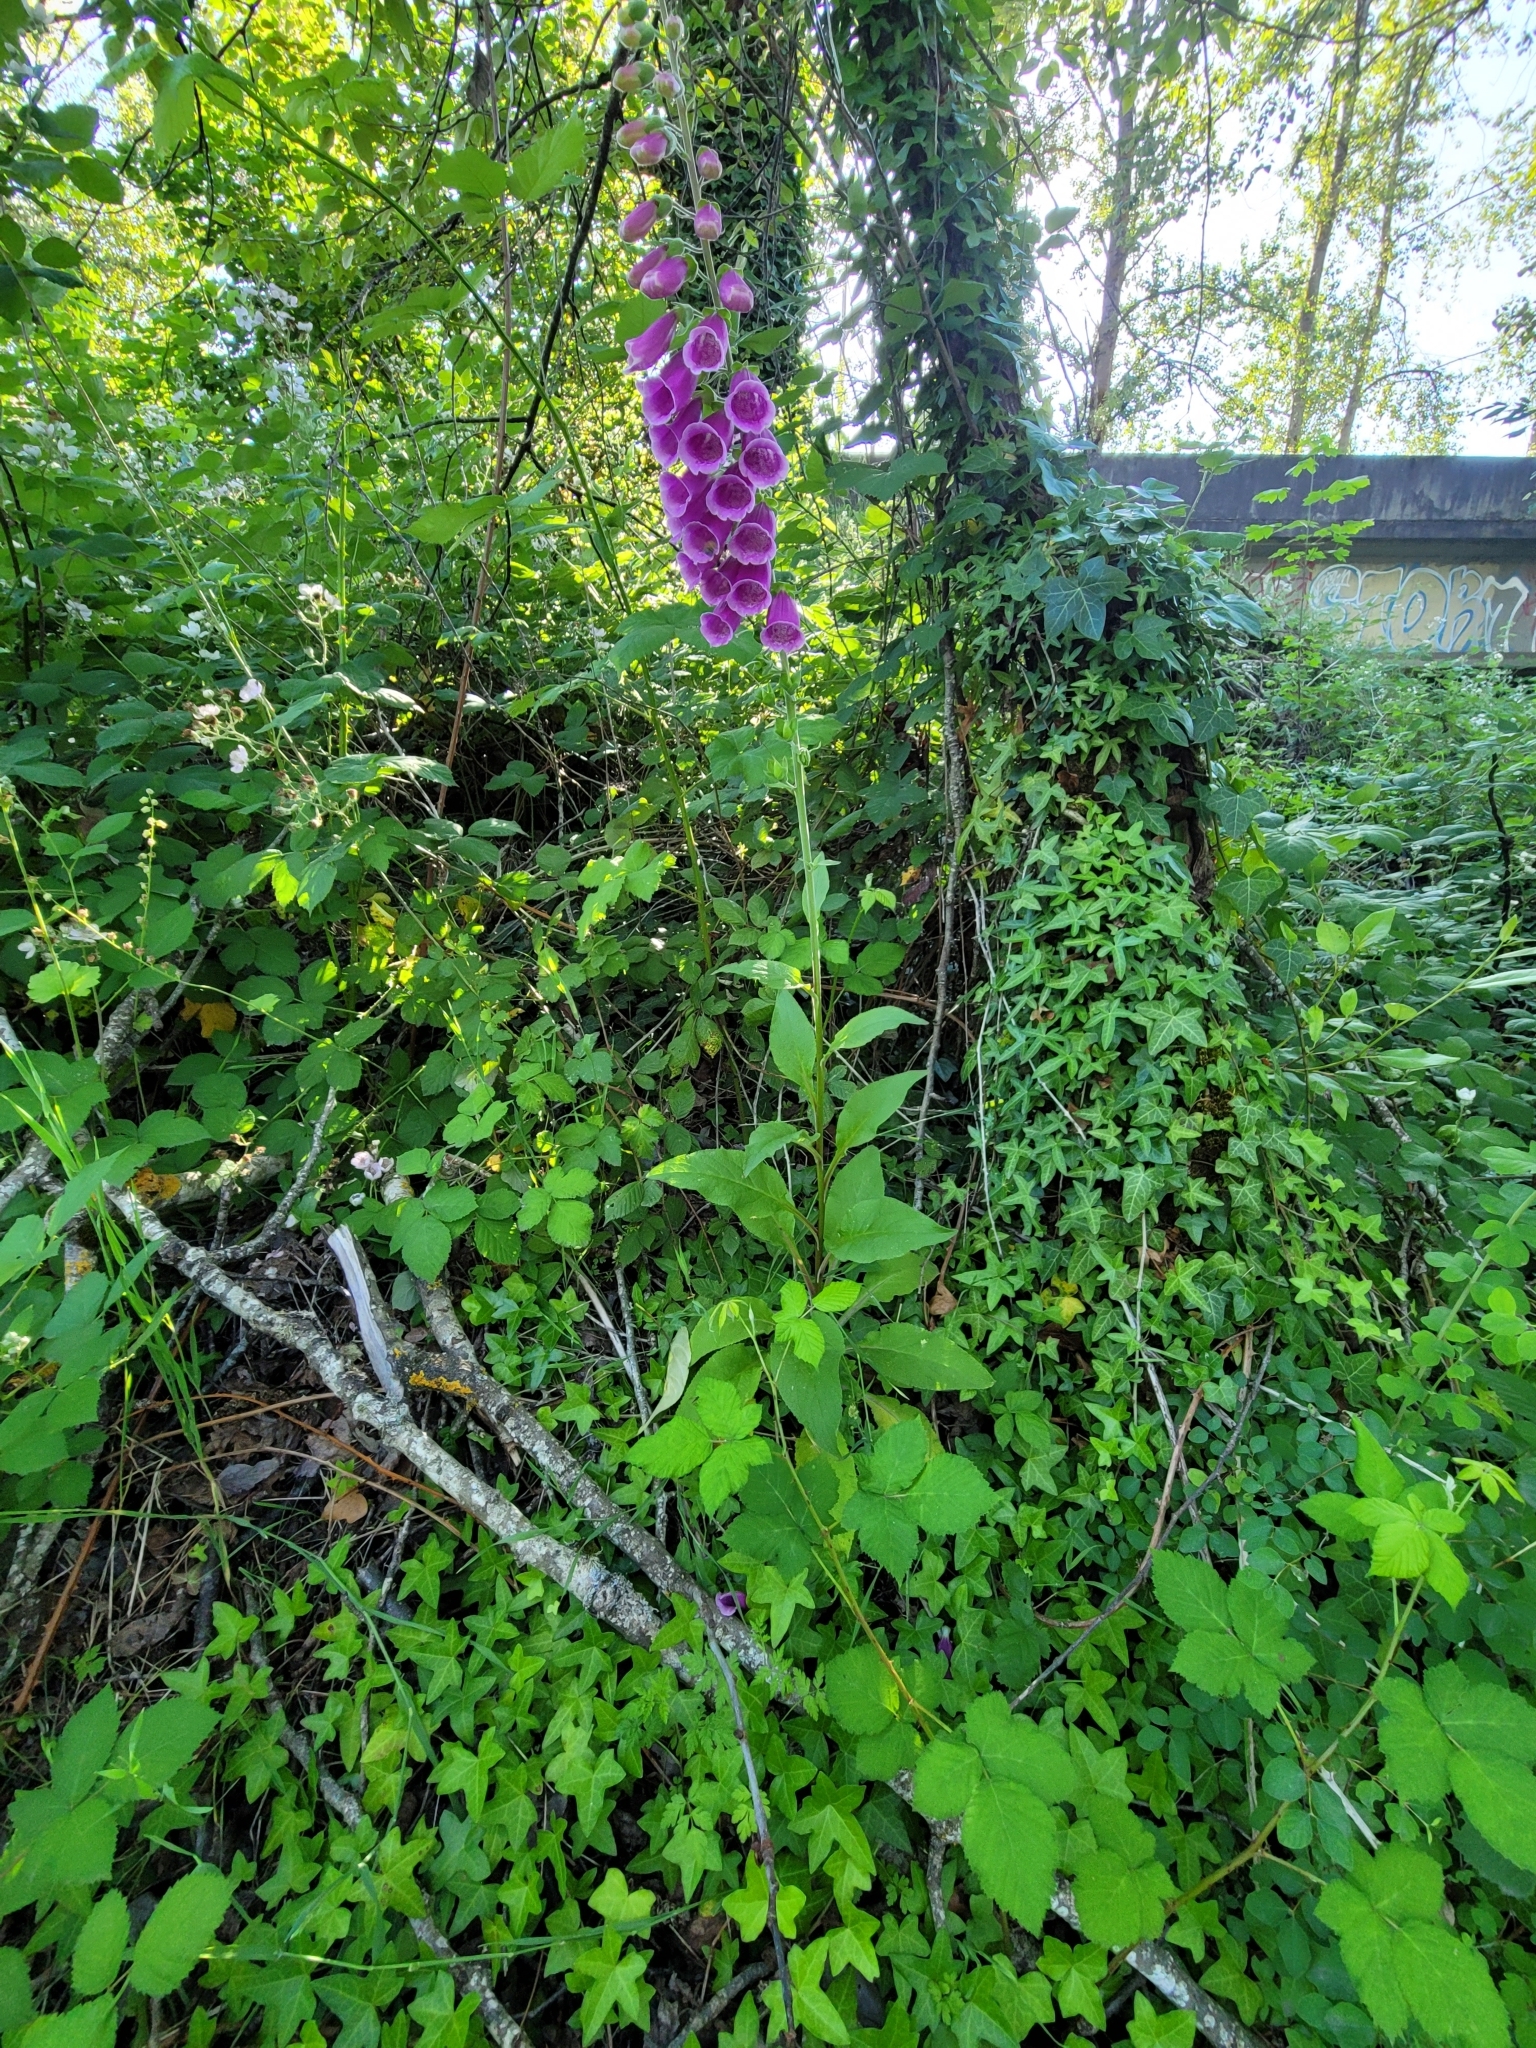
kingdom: Plantae
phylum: Tracheophyta
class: Magnoliopsida
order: Lamiales
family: Plantaginaceae
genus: Digitalis
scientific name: Digitalis purpurea
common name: Foxglove
